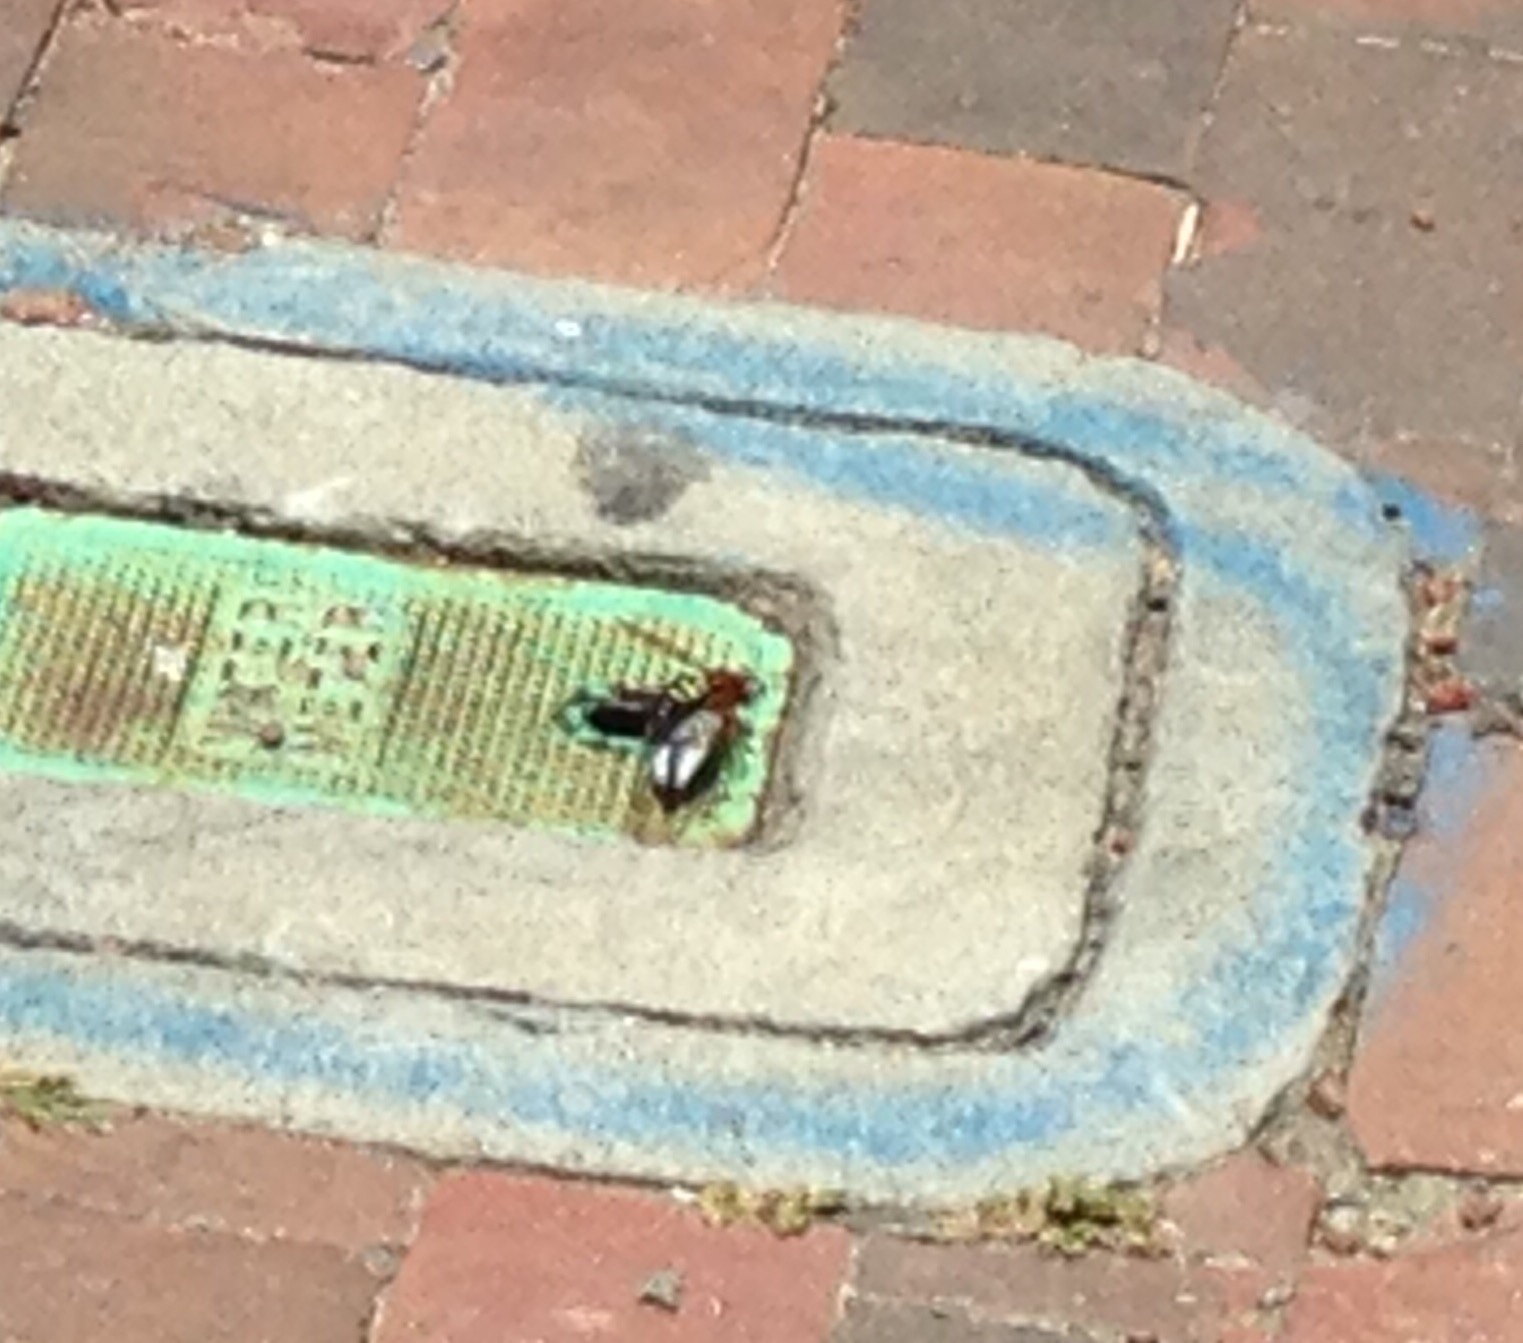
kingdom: Animalia
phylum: Arthropoda
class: Insecta
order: Hymenoptera
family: Crabronidae
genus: Sphecius
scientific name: Sphecius speciosus
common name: Cicada killer
